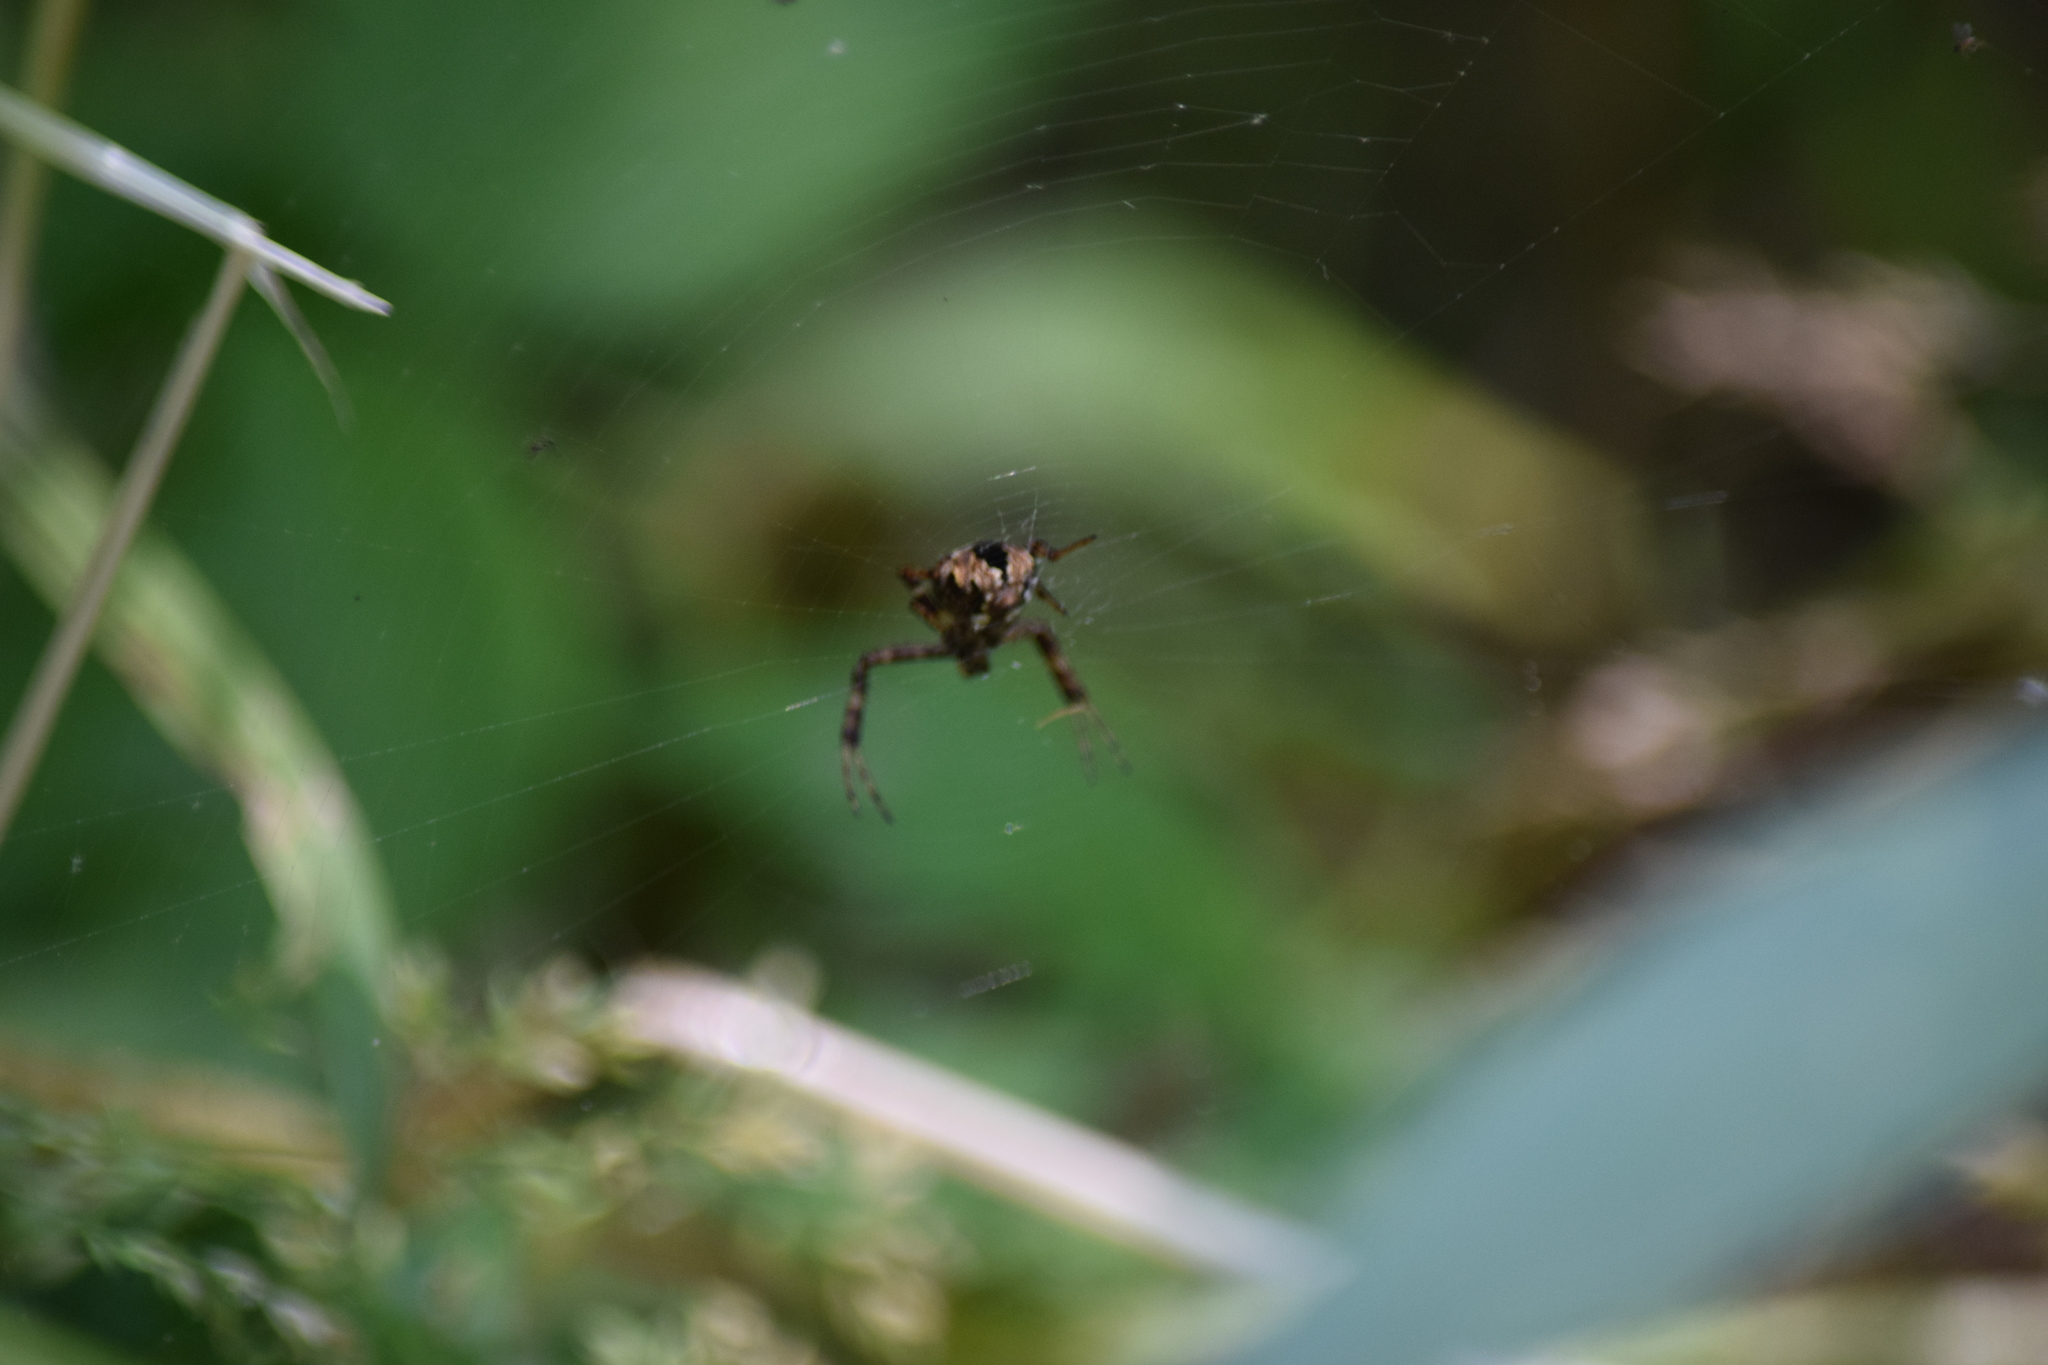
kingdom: Animalia
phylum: Arthropoda
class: Arachnida
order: Araneae
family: Araneidae
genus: Gea
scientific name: Gea heptagon
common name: Orb weavers
